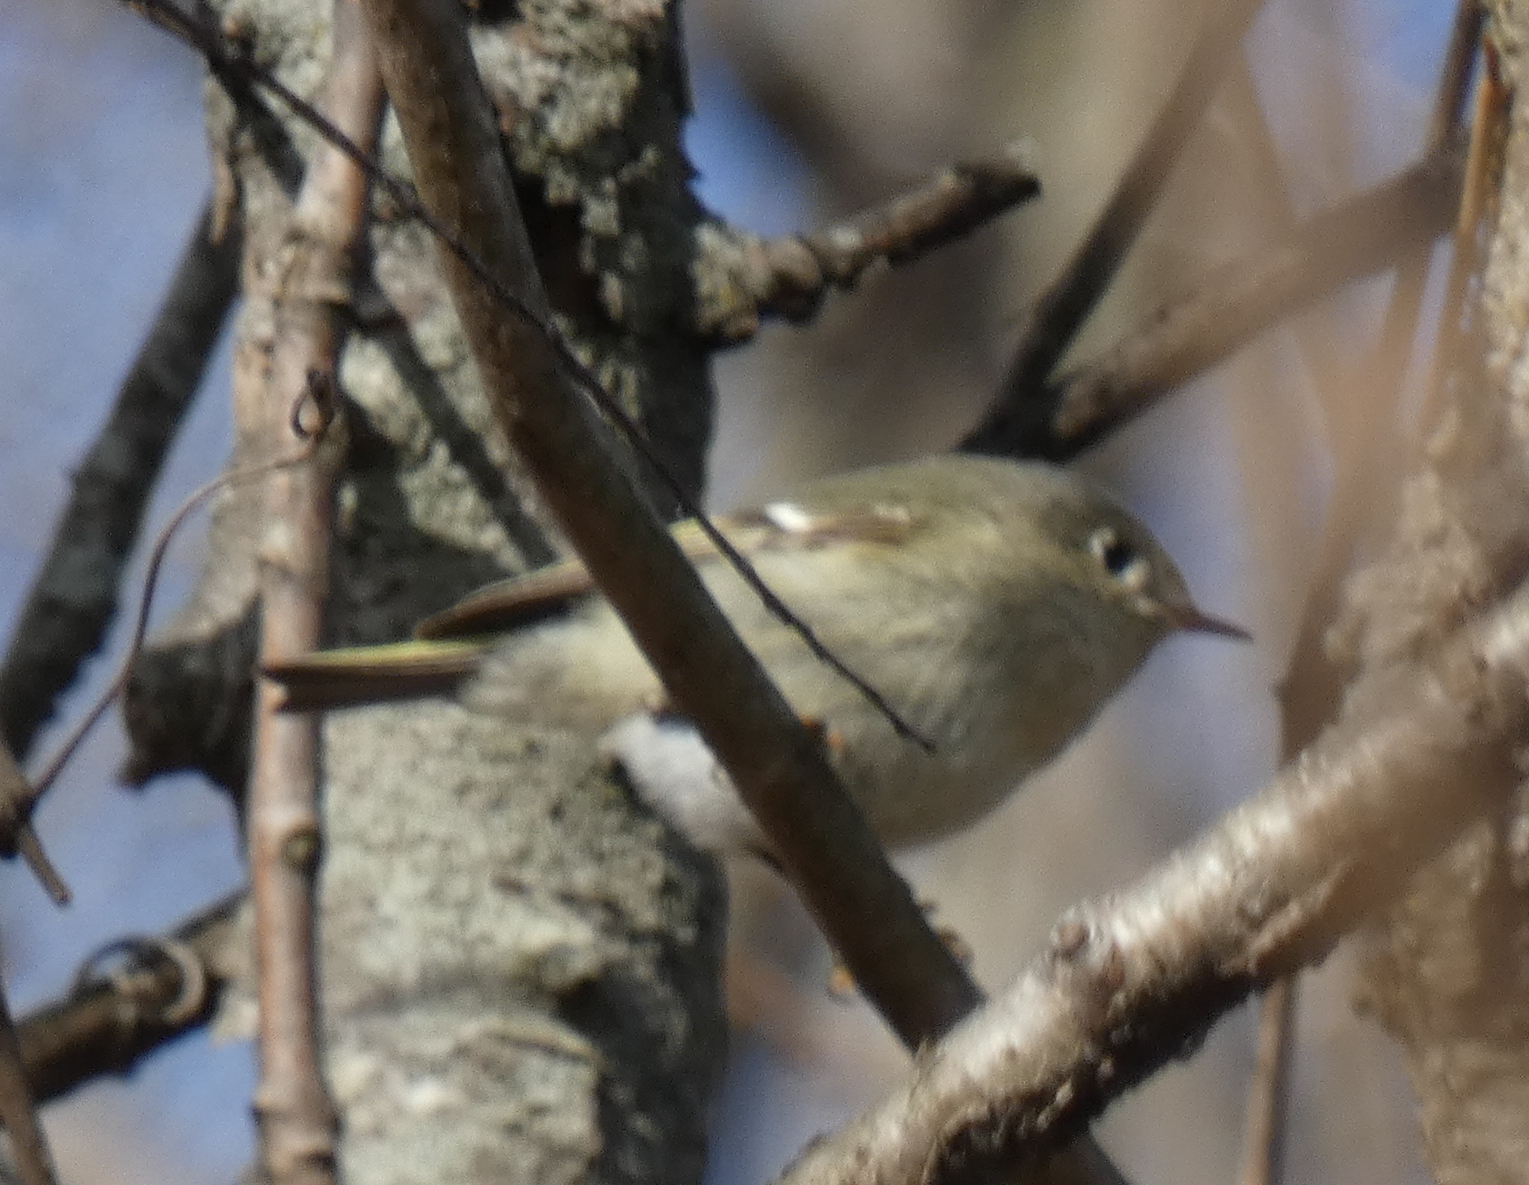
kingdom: Animalia
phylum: Chordata
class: Aves
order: Passeriformes
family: Regulidae
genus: Regulus
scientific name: Regulus calendula
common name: Ruby-crowned kinglet
